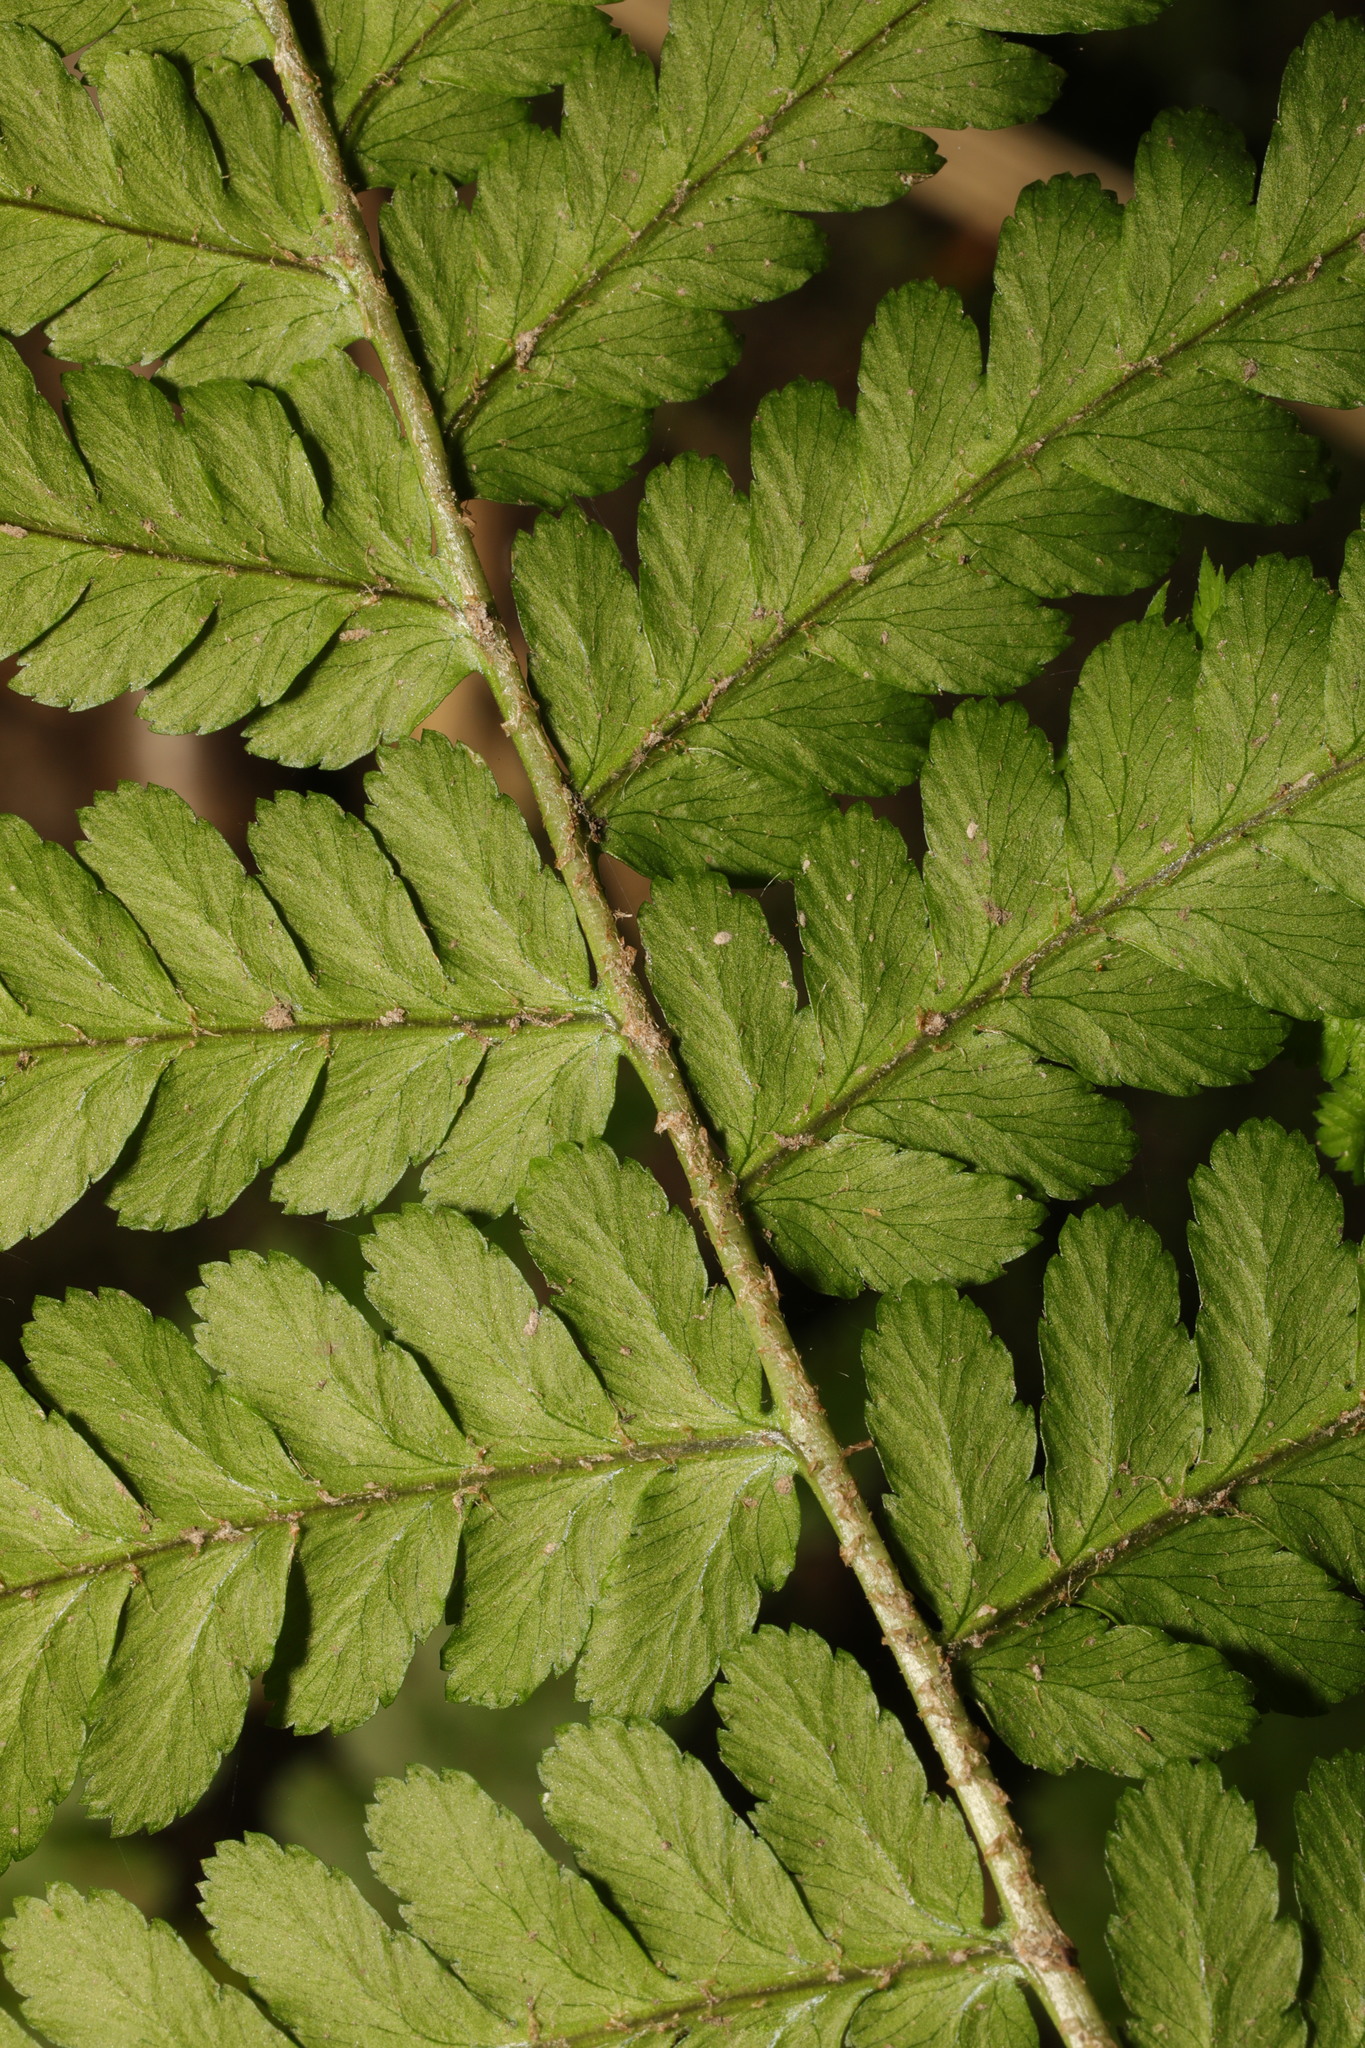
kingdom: Plantae
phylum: Tracheophyta
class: Polypodiopsida
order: Polypodiales
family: Dryopteridaceae
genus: Dryopteris
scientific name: Dryopteris filix-mas
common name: Male fern
